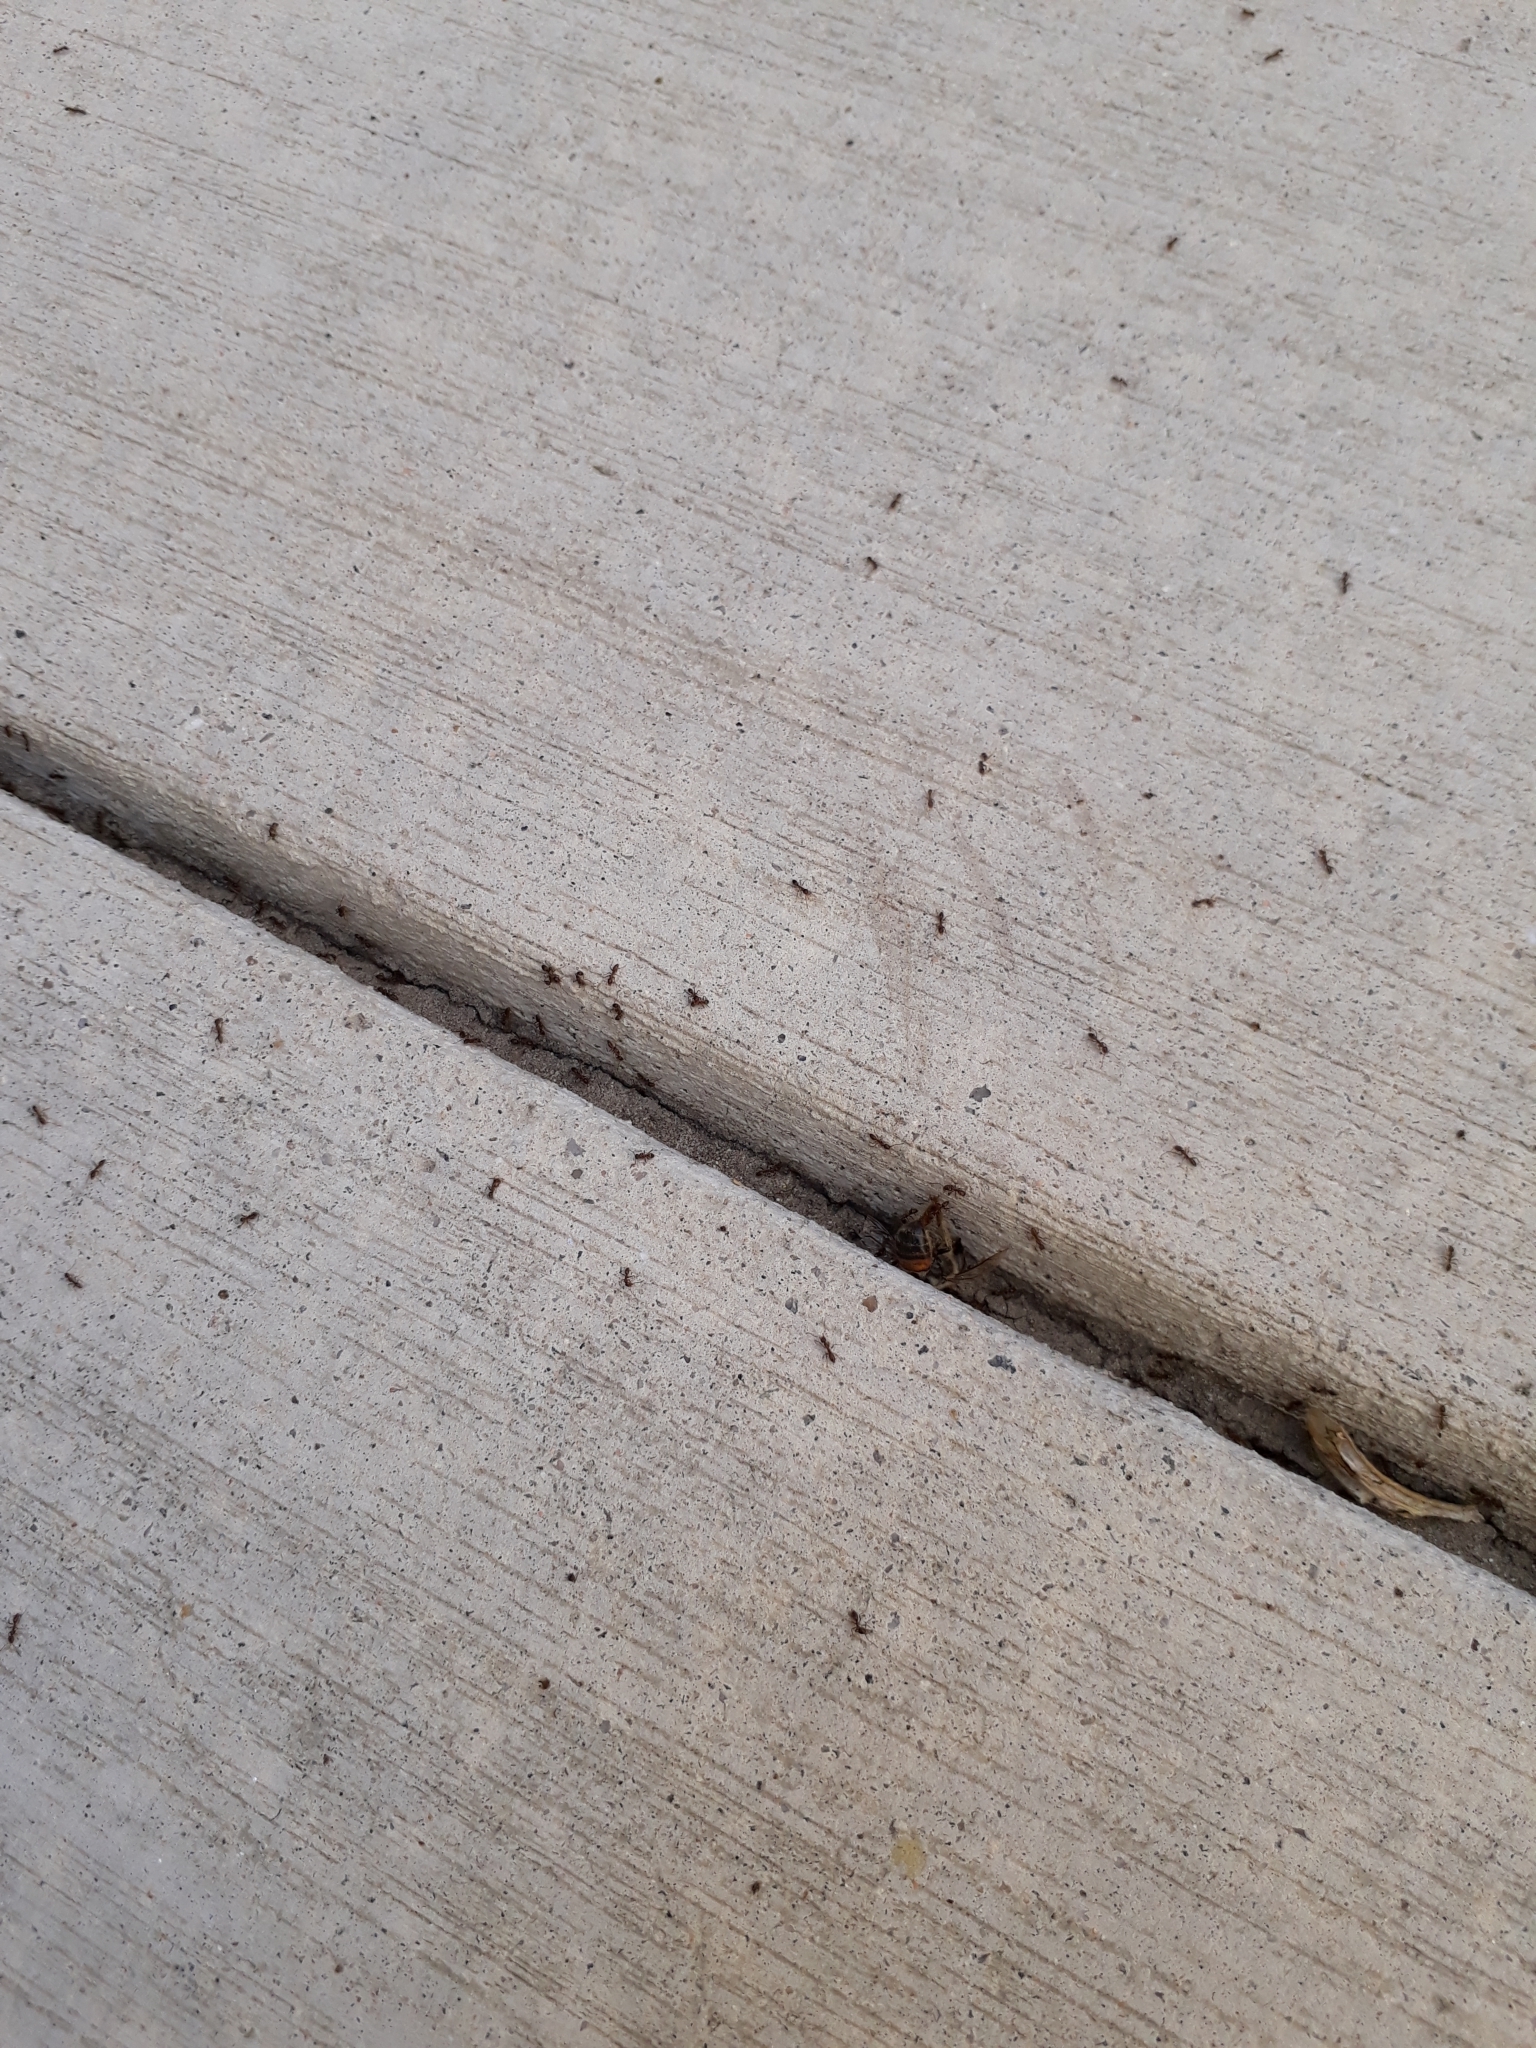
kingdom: Animalia
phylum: Arthropoda
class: Insecta
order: Hymenoptera
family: Formicidae
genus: Linepithema
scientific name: Linepithema humile
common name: Argentine ant
